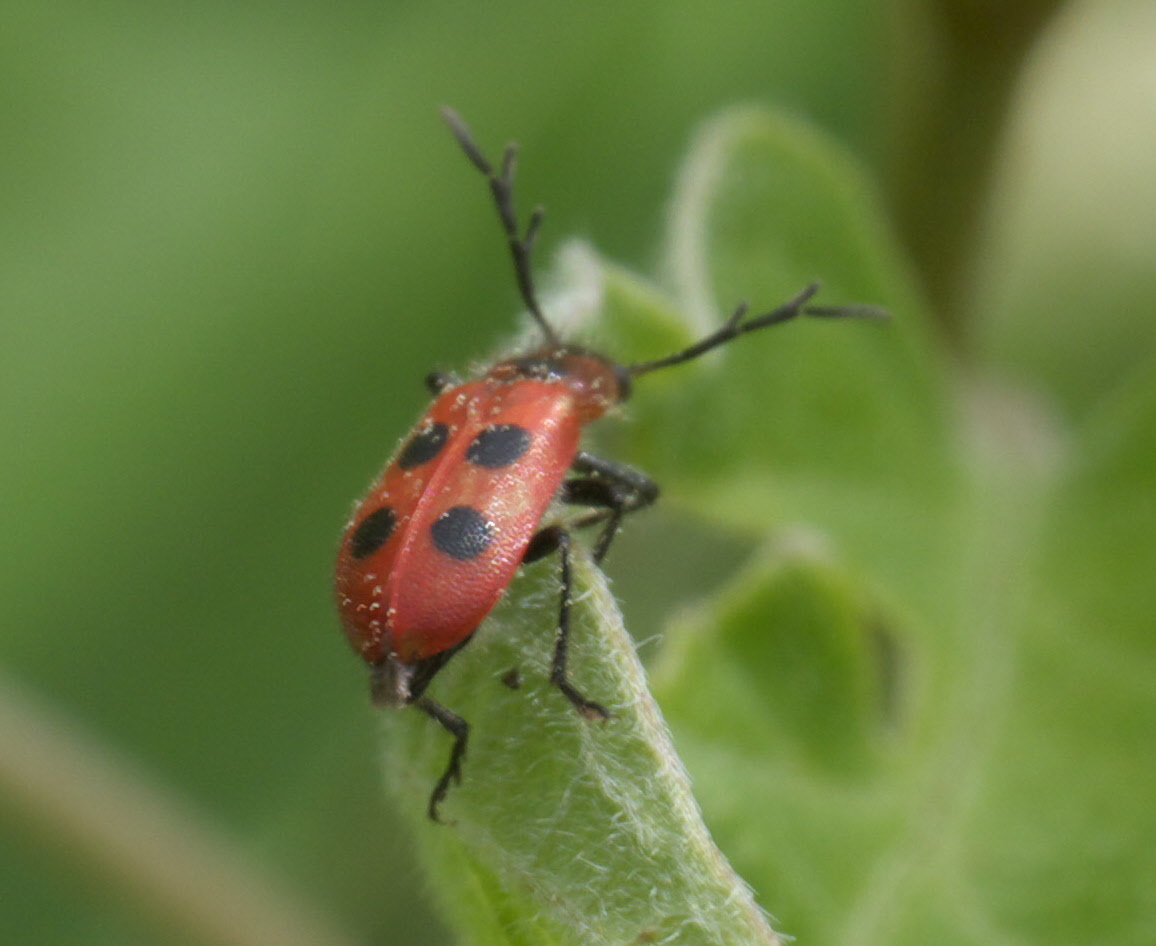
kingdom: Animalia
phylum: Arthropoda
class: Insecta
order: Coleoptera
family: Cleridae
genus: Pelonides
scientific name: Pelonides
